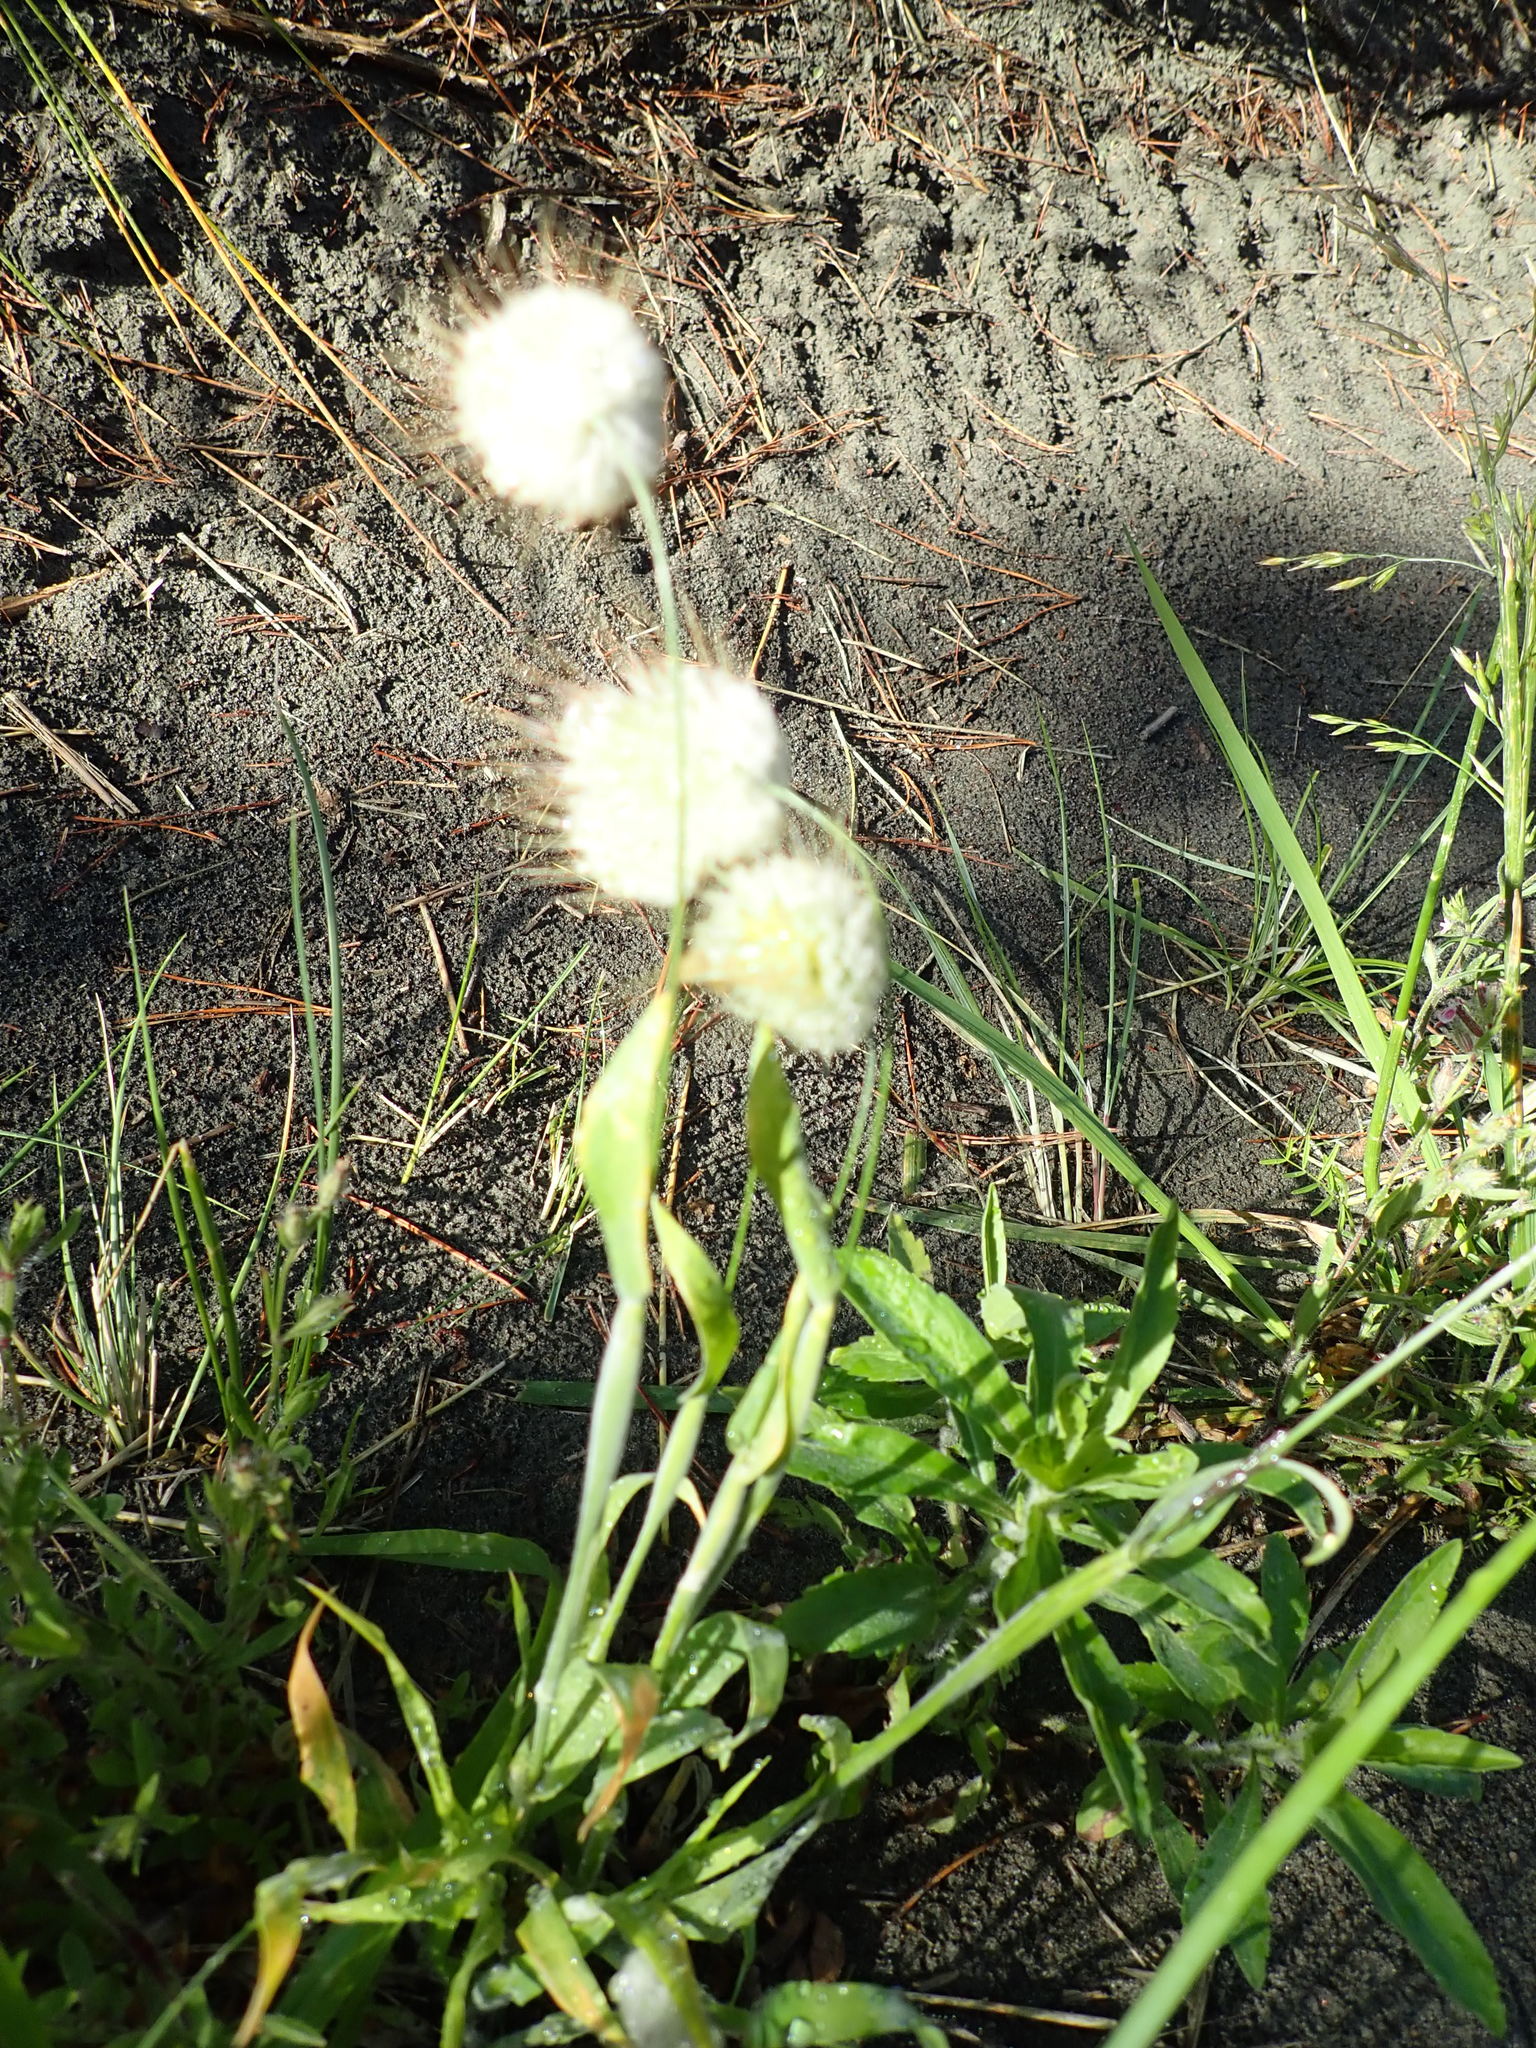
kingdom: Plantae
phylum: Tracheophyta
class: Liliopsida
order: Poales
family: Poaceae
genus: Lagurus
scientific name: Lagurus ovatus
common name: Hare's-tail
